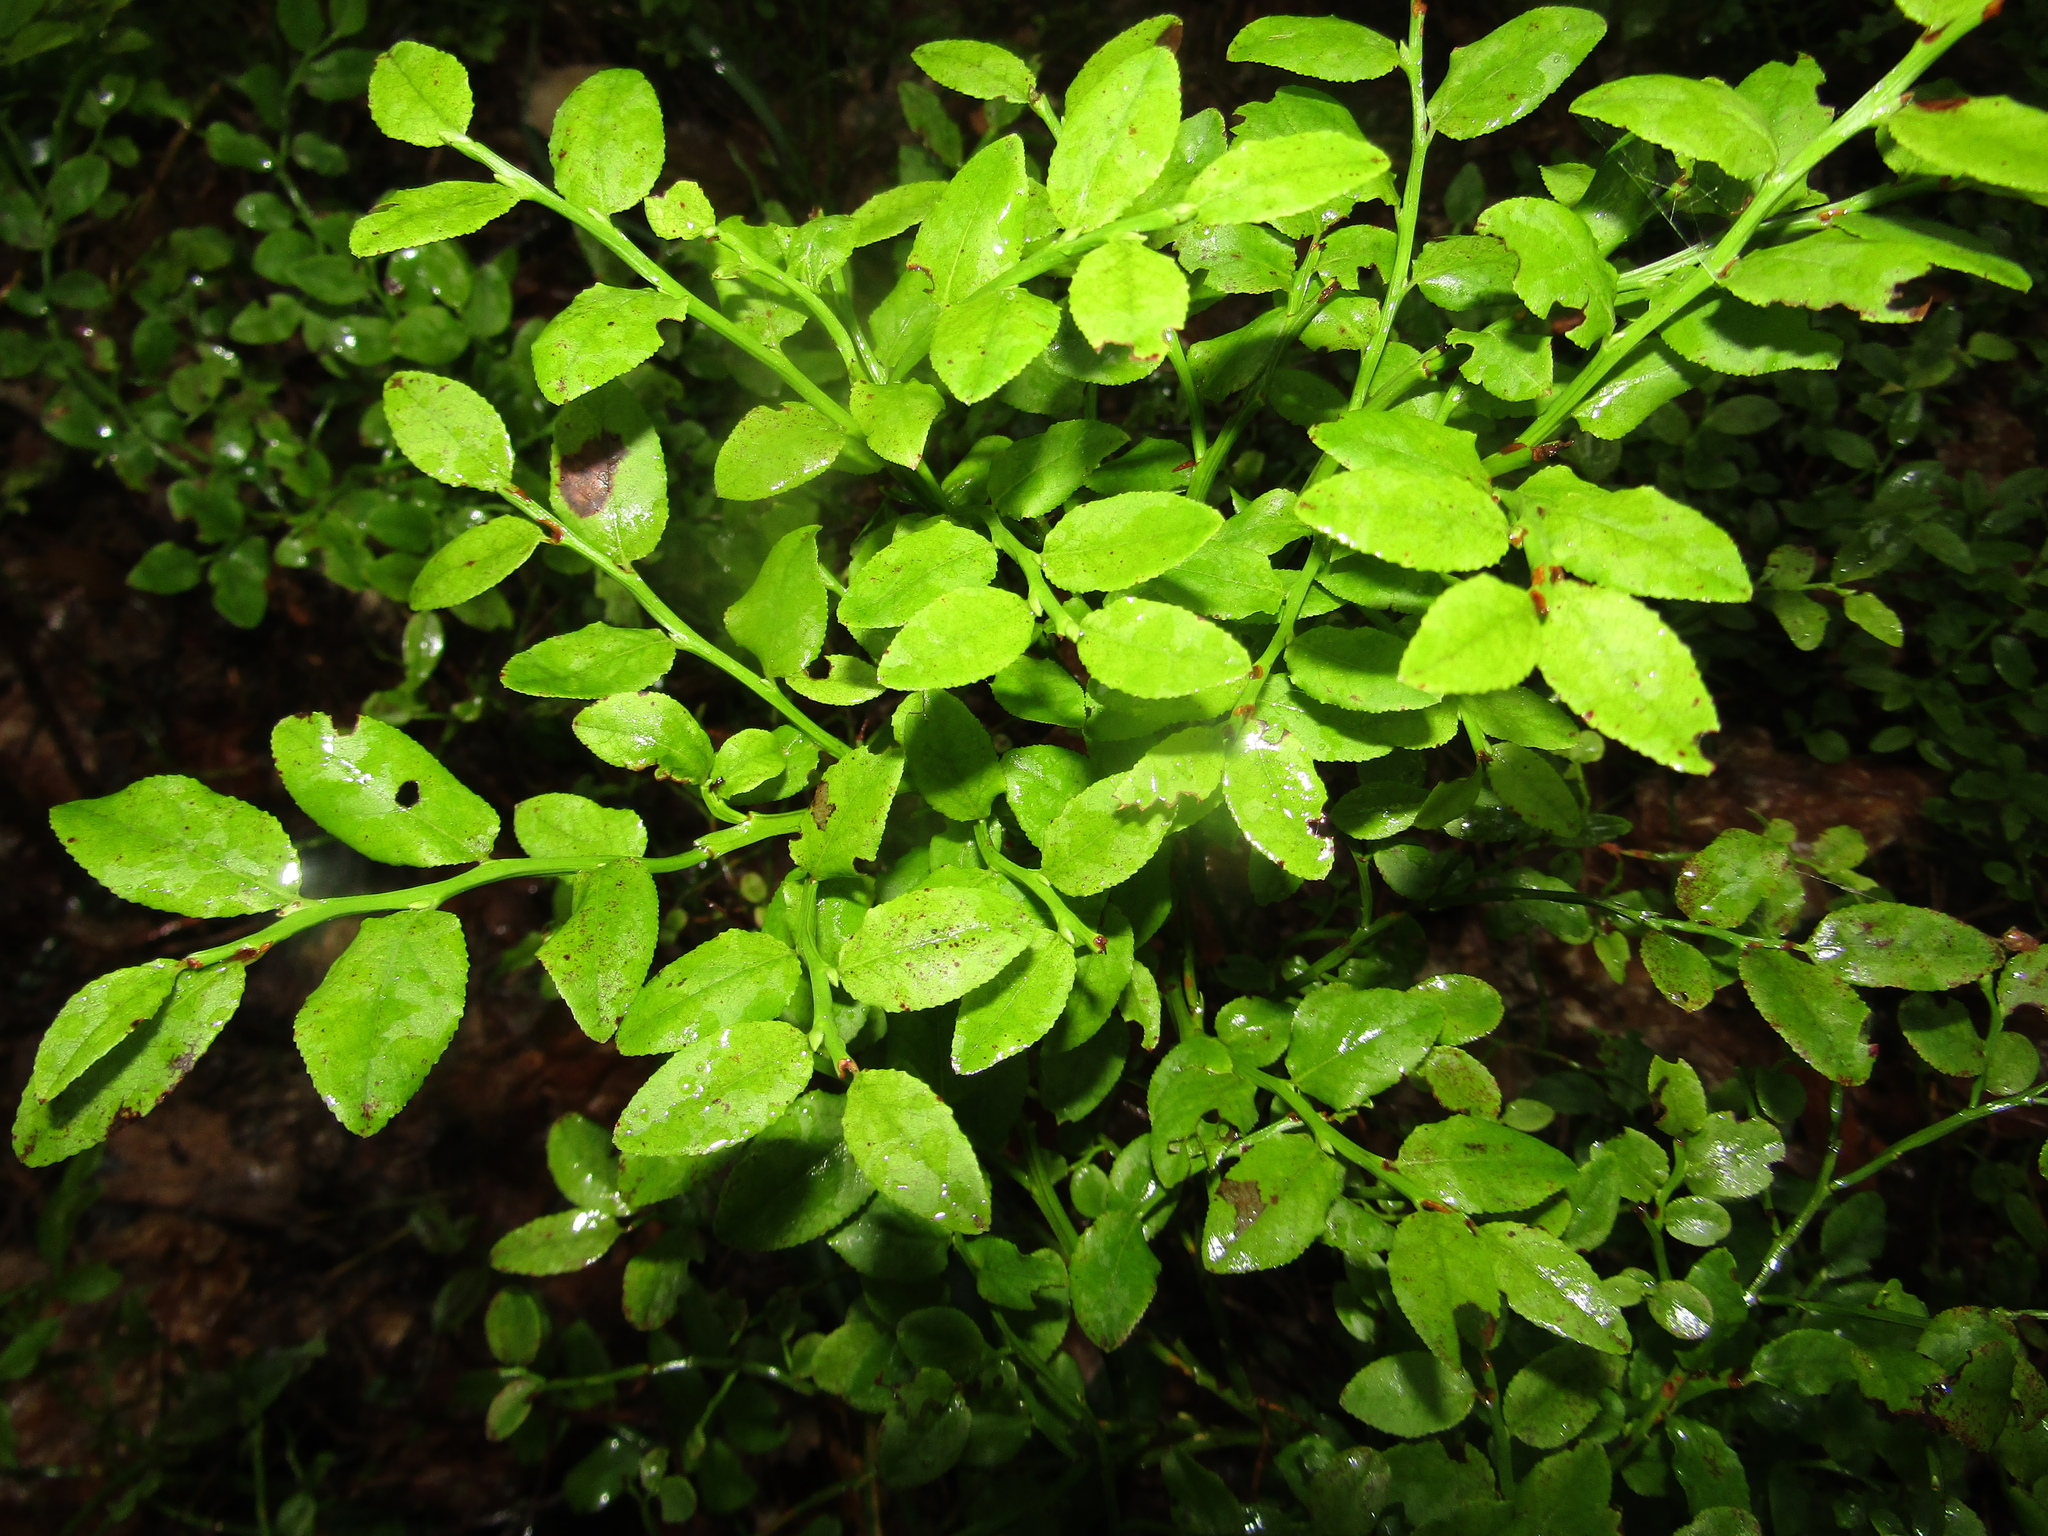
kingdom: Plantae
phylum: Tracheophyta
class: Magnoliopsida
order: Ericales
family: Ericaceae
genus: Vaccinium
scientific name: Vaccinium myrtillus
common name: Bilberry
